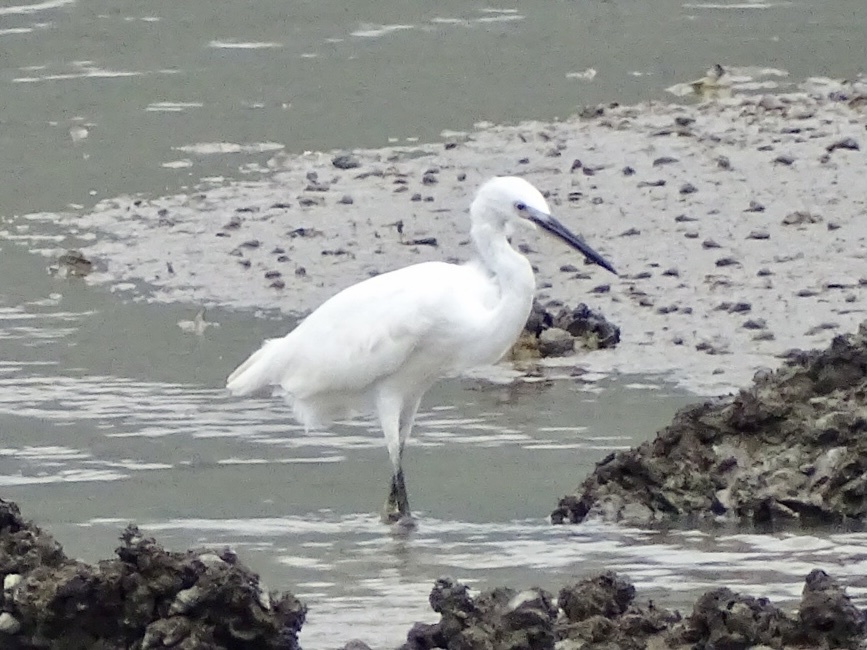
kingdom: Animalia
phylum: Chordata
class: Aves
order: Pelecaniformes
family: Ardeidae
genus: Egretta
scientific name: Egretta garzetta
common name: Little egret
